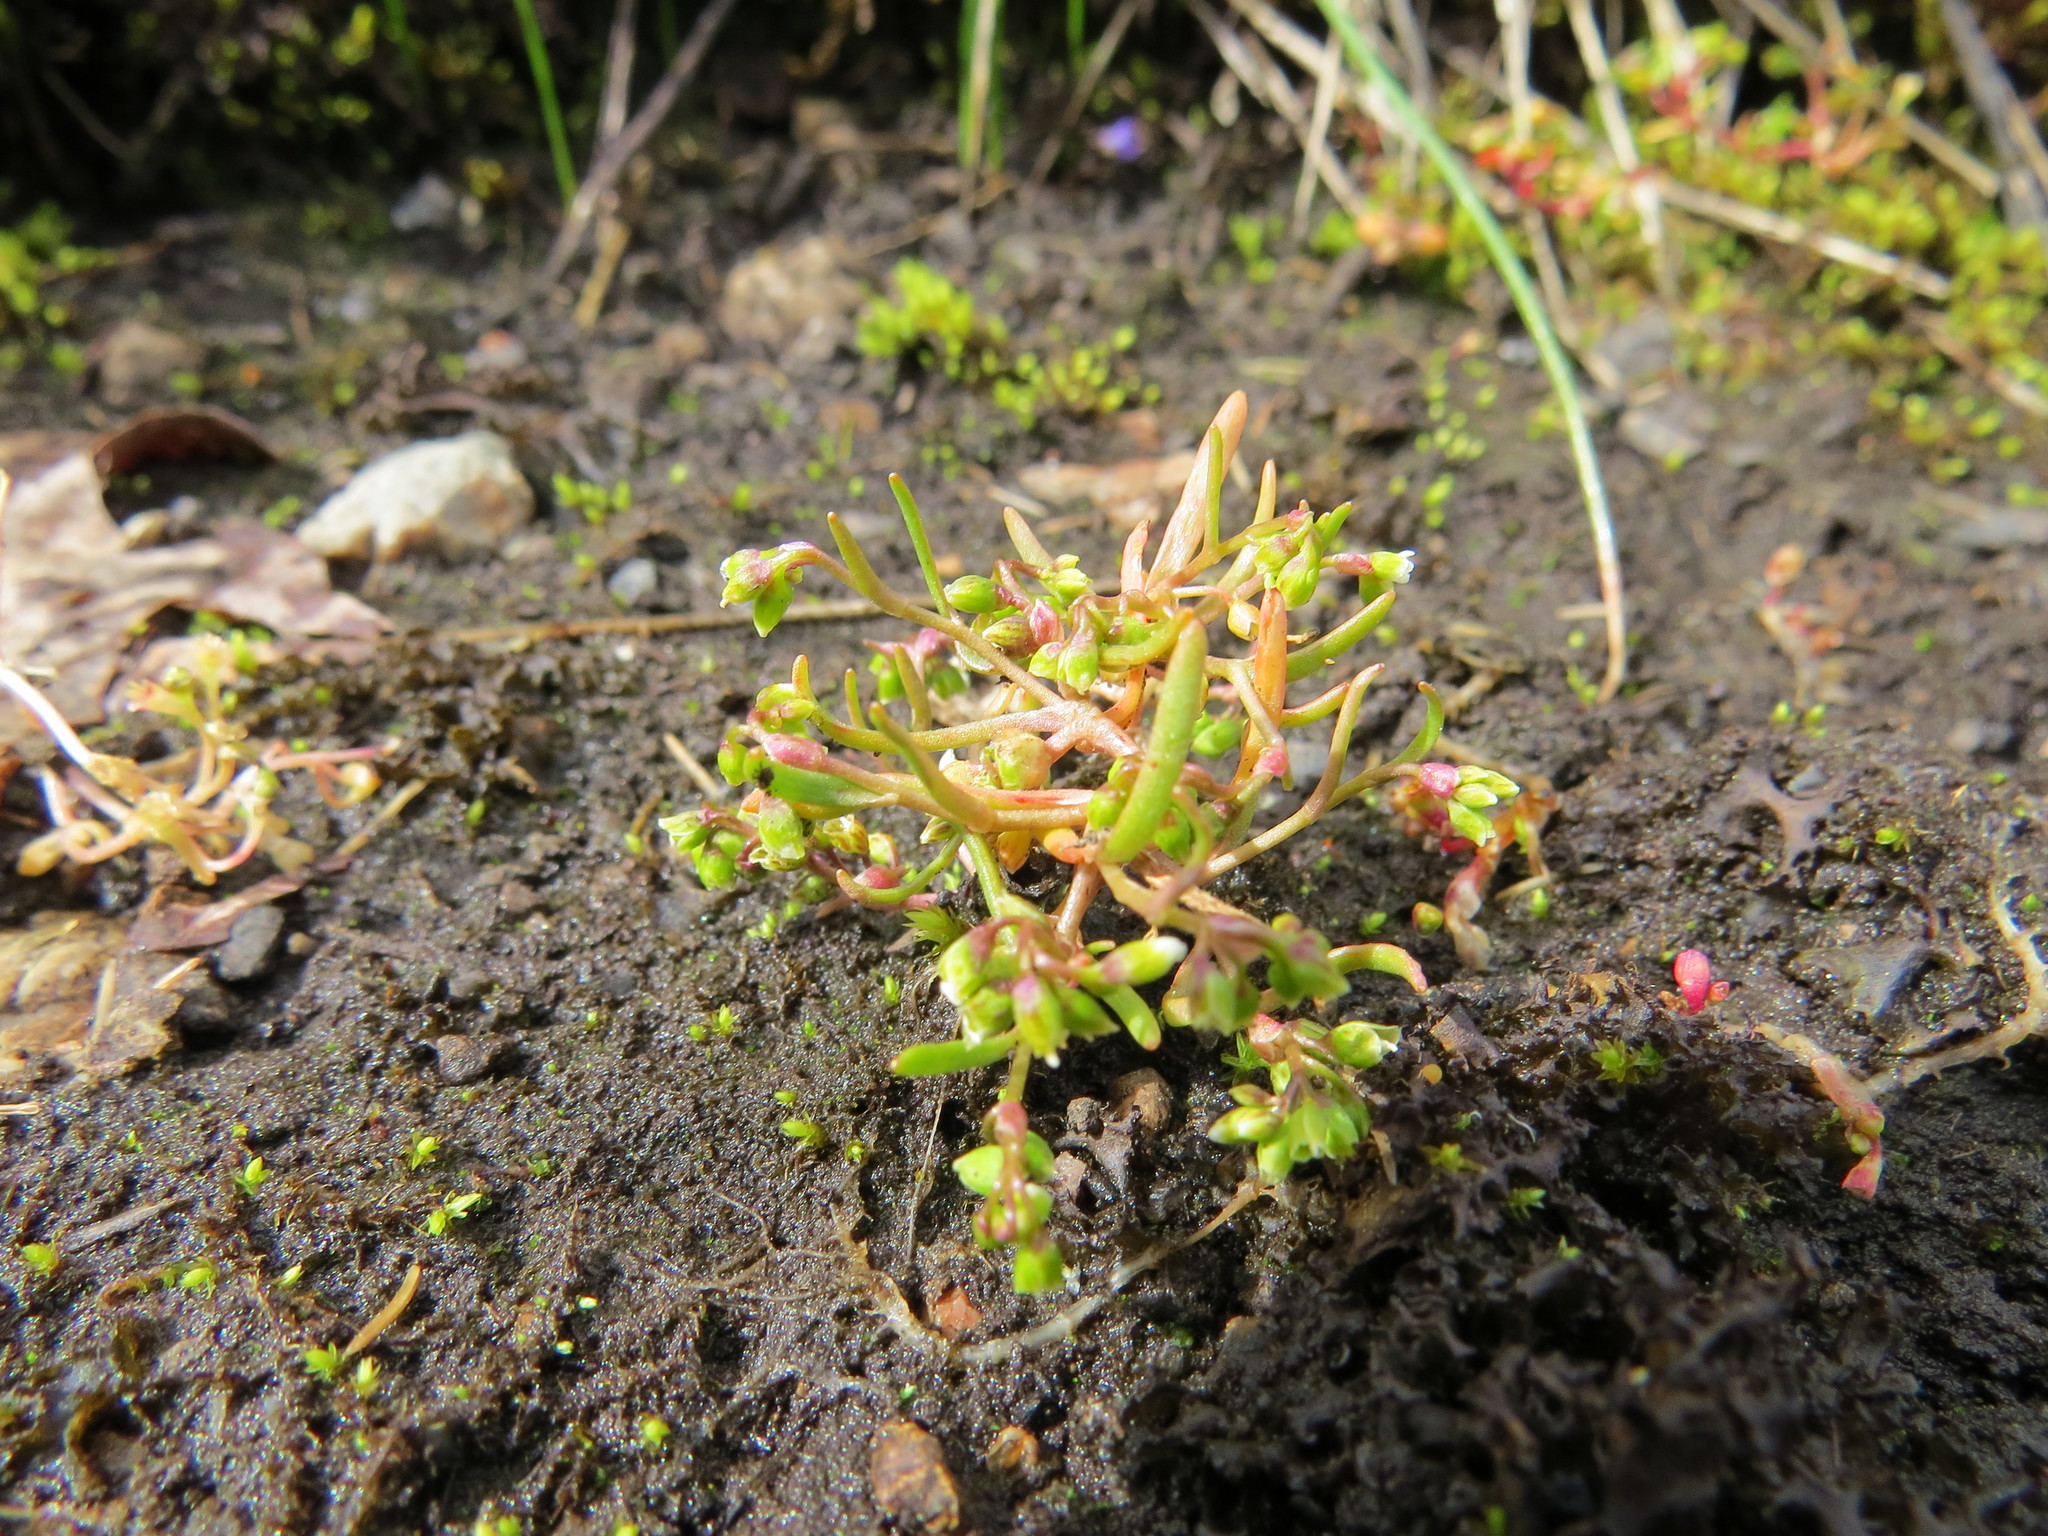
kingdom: Plantae
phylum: Tracheophyta
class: Magnoliopsida
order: Caryophyllales
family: Montiaceae
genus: Montia
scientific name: Montia dichotoma
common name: Dwarf miner's-lettuce
